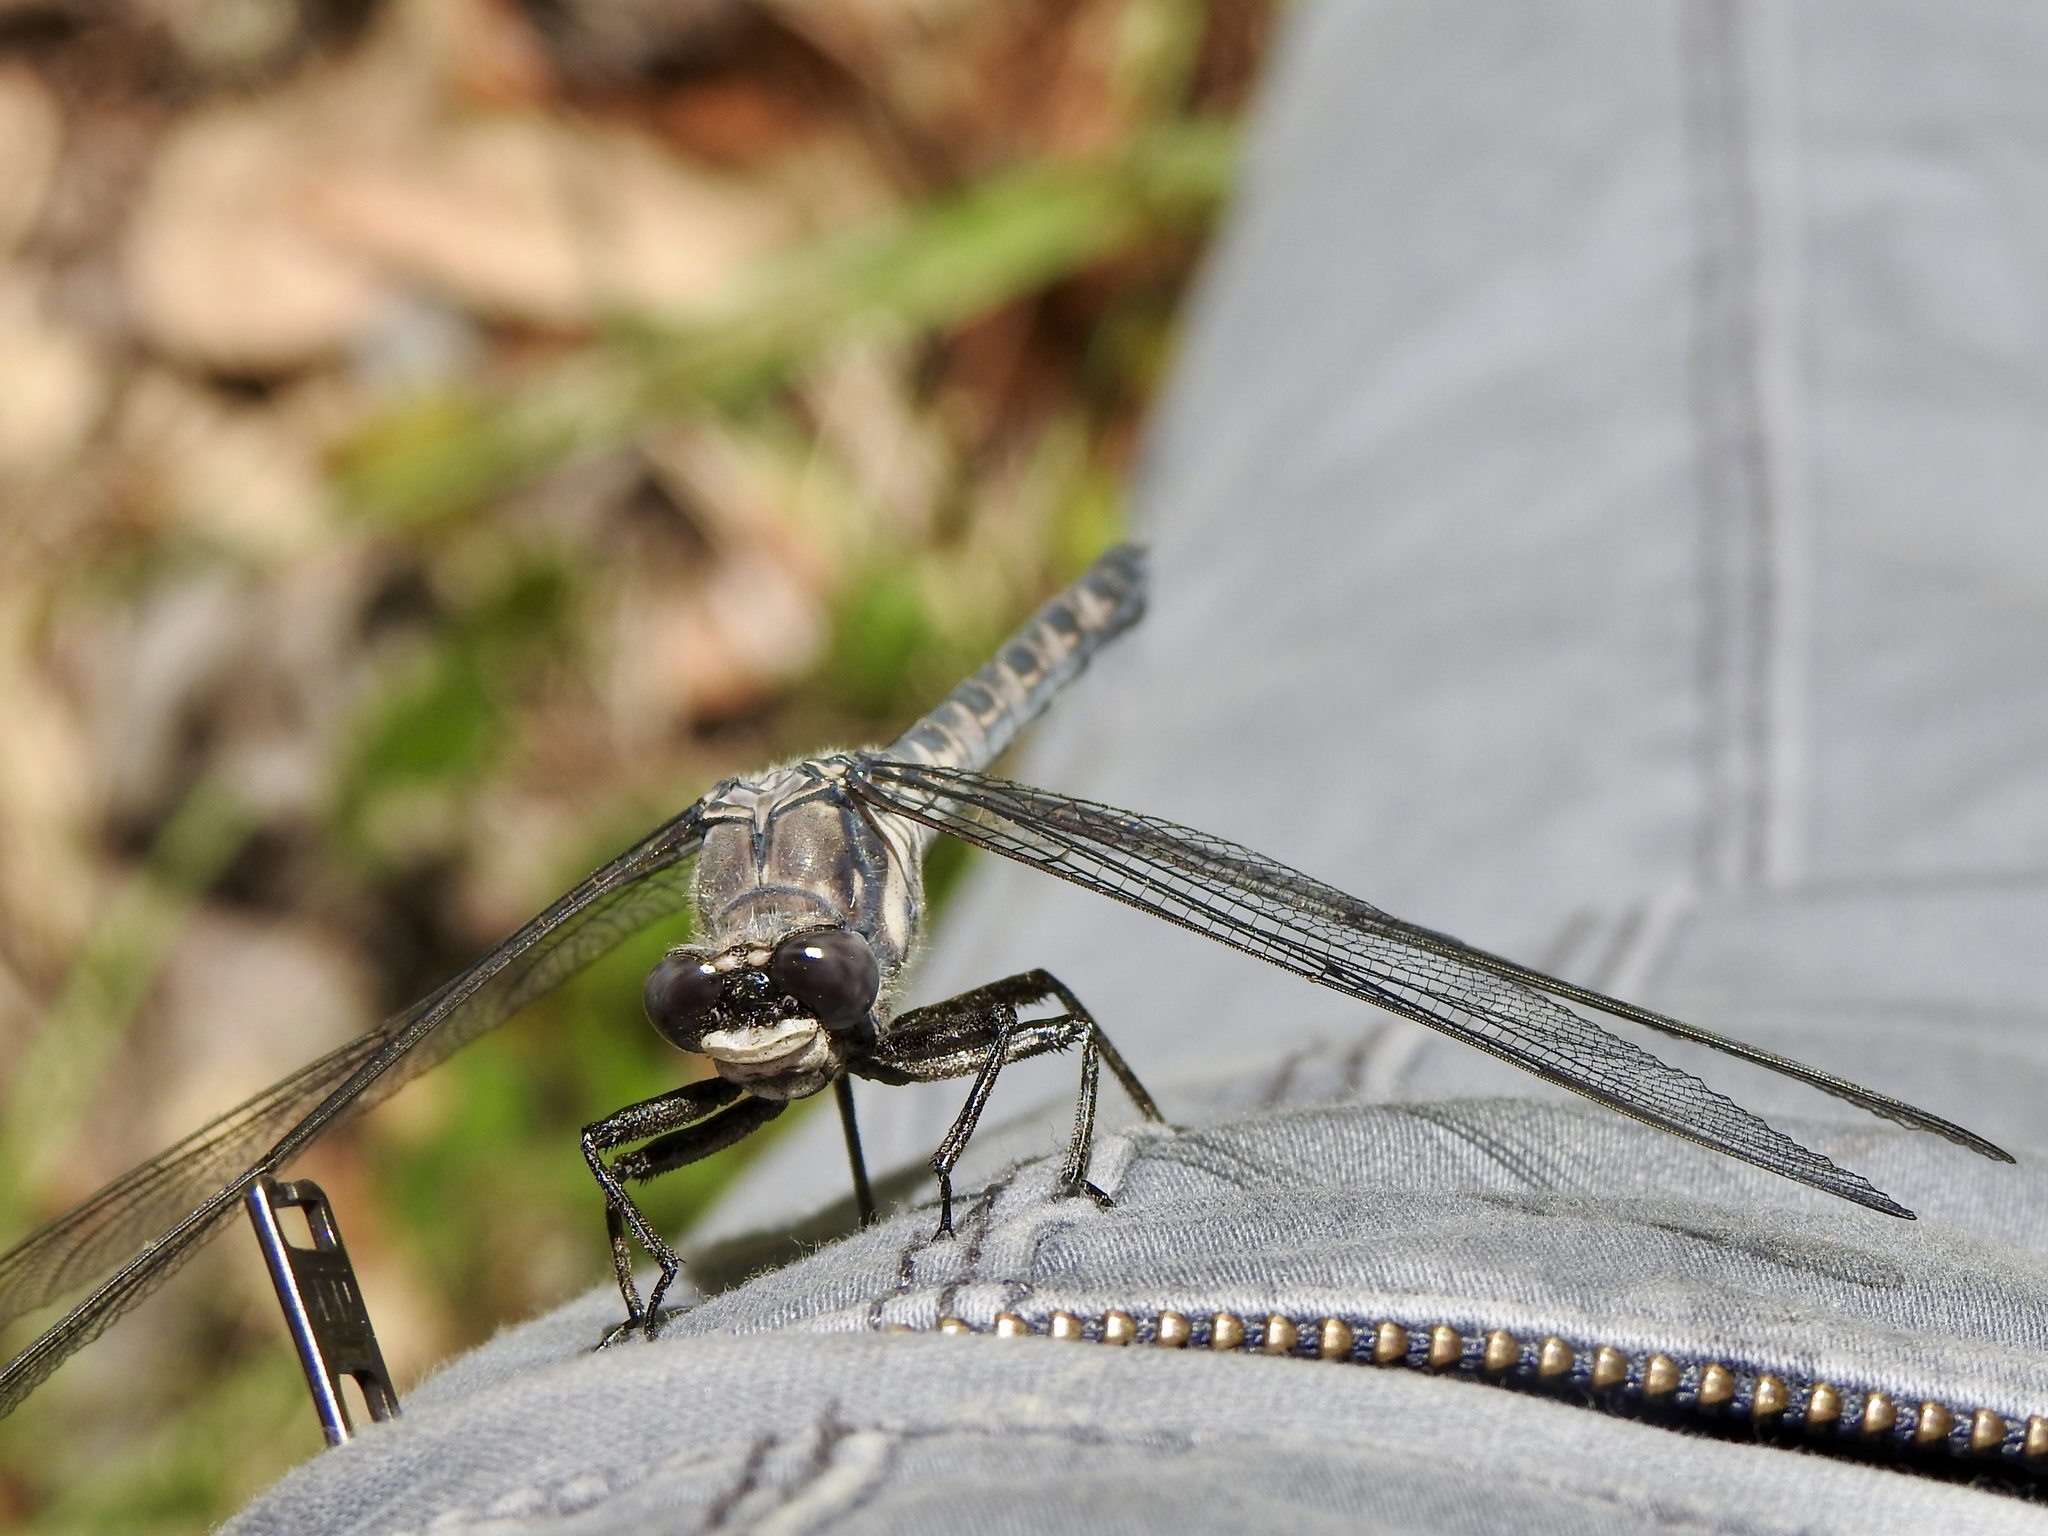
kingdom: Animalia
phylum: Arthropoda
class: Insecta
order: Odonata
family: Petaluridae
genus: Tachopteryx
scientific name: Tachopteryx thoreyi
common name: Gray petaltail
